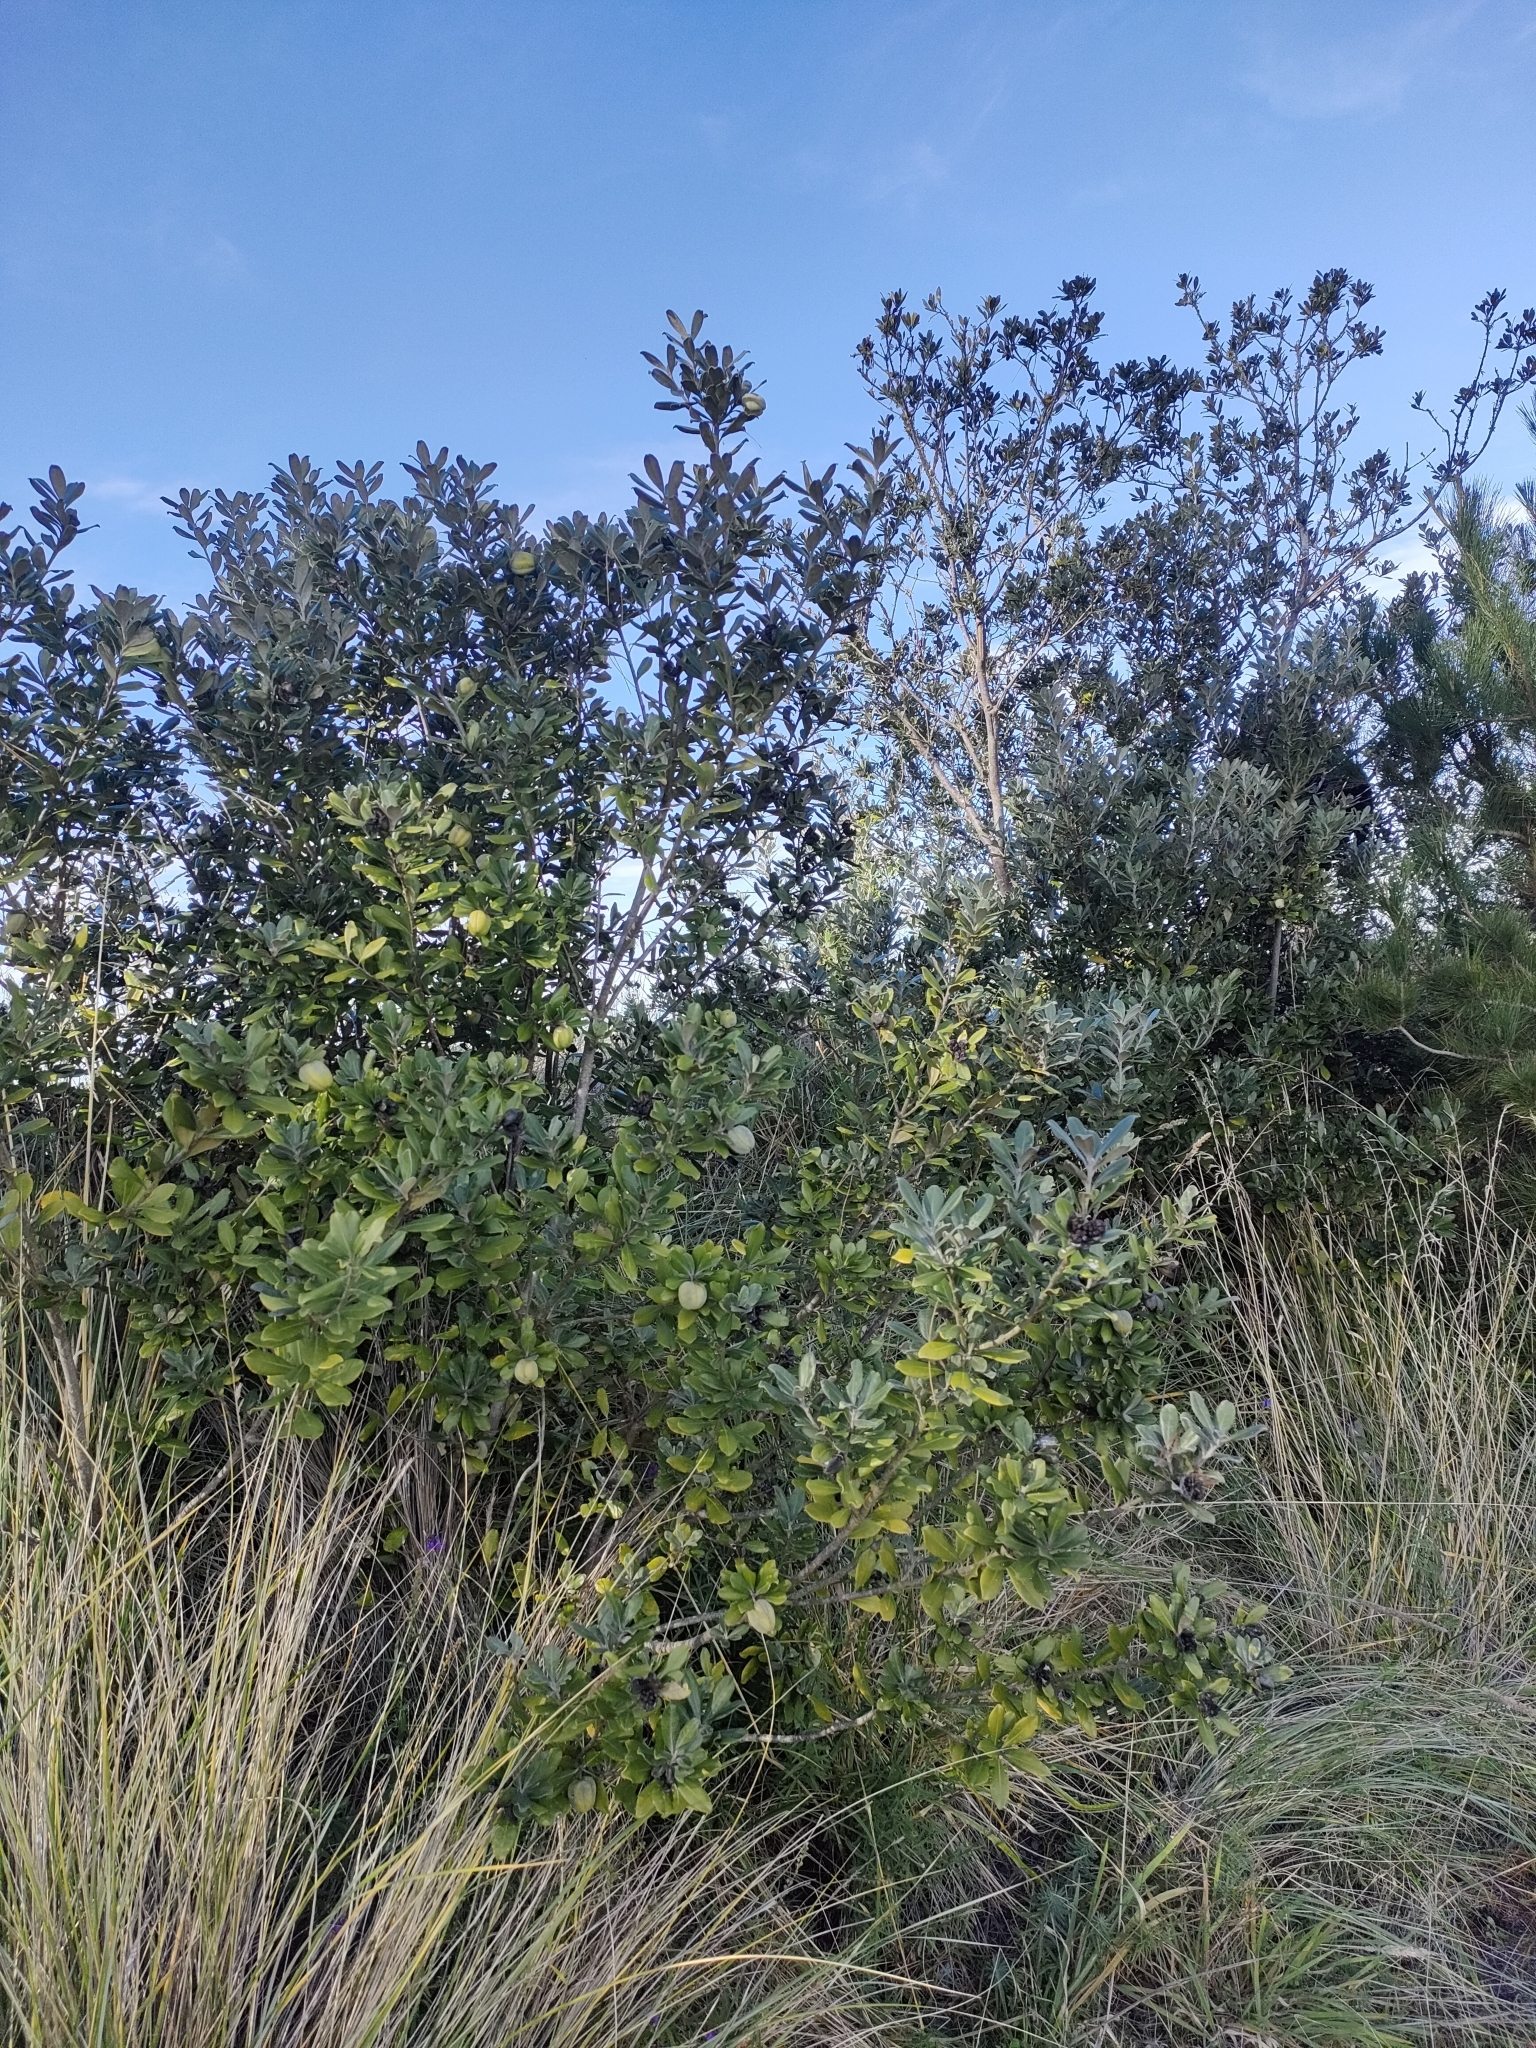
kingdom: Plantae
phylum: Tracheophyta
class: Magnoliopsida
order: Apiales
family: Pittosporaceae
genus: Pittosporum
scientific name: Pittosporum crassifolium
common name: Karo
